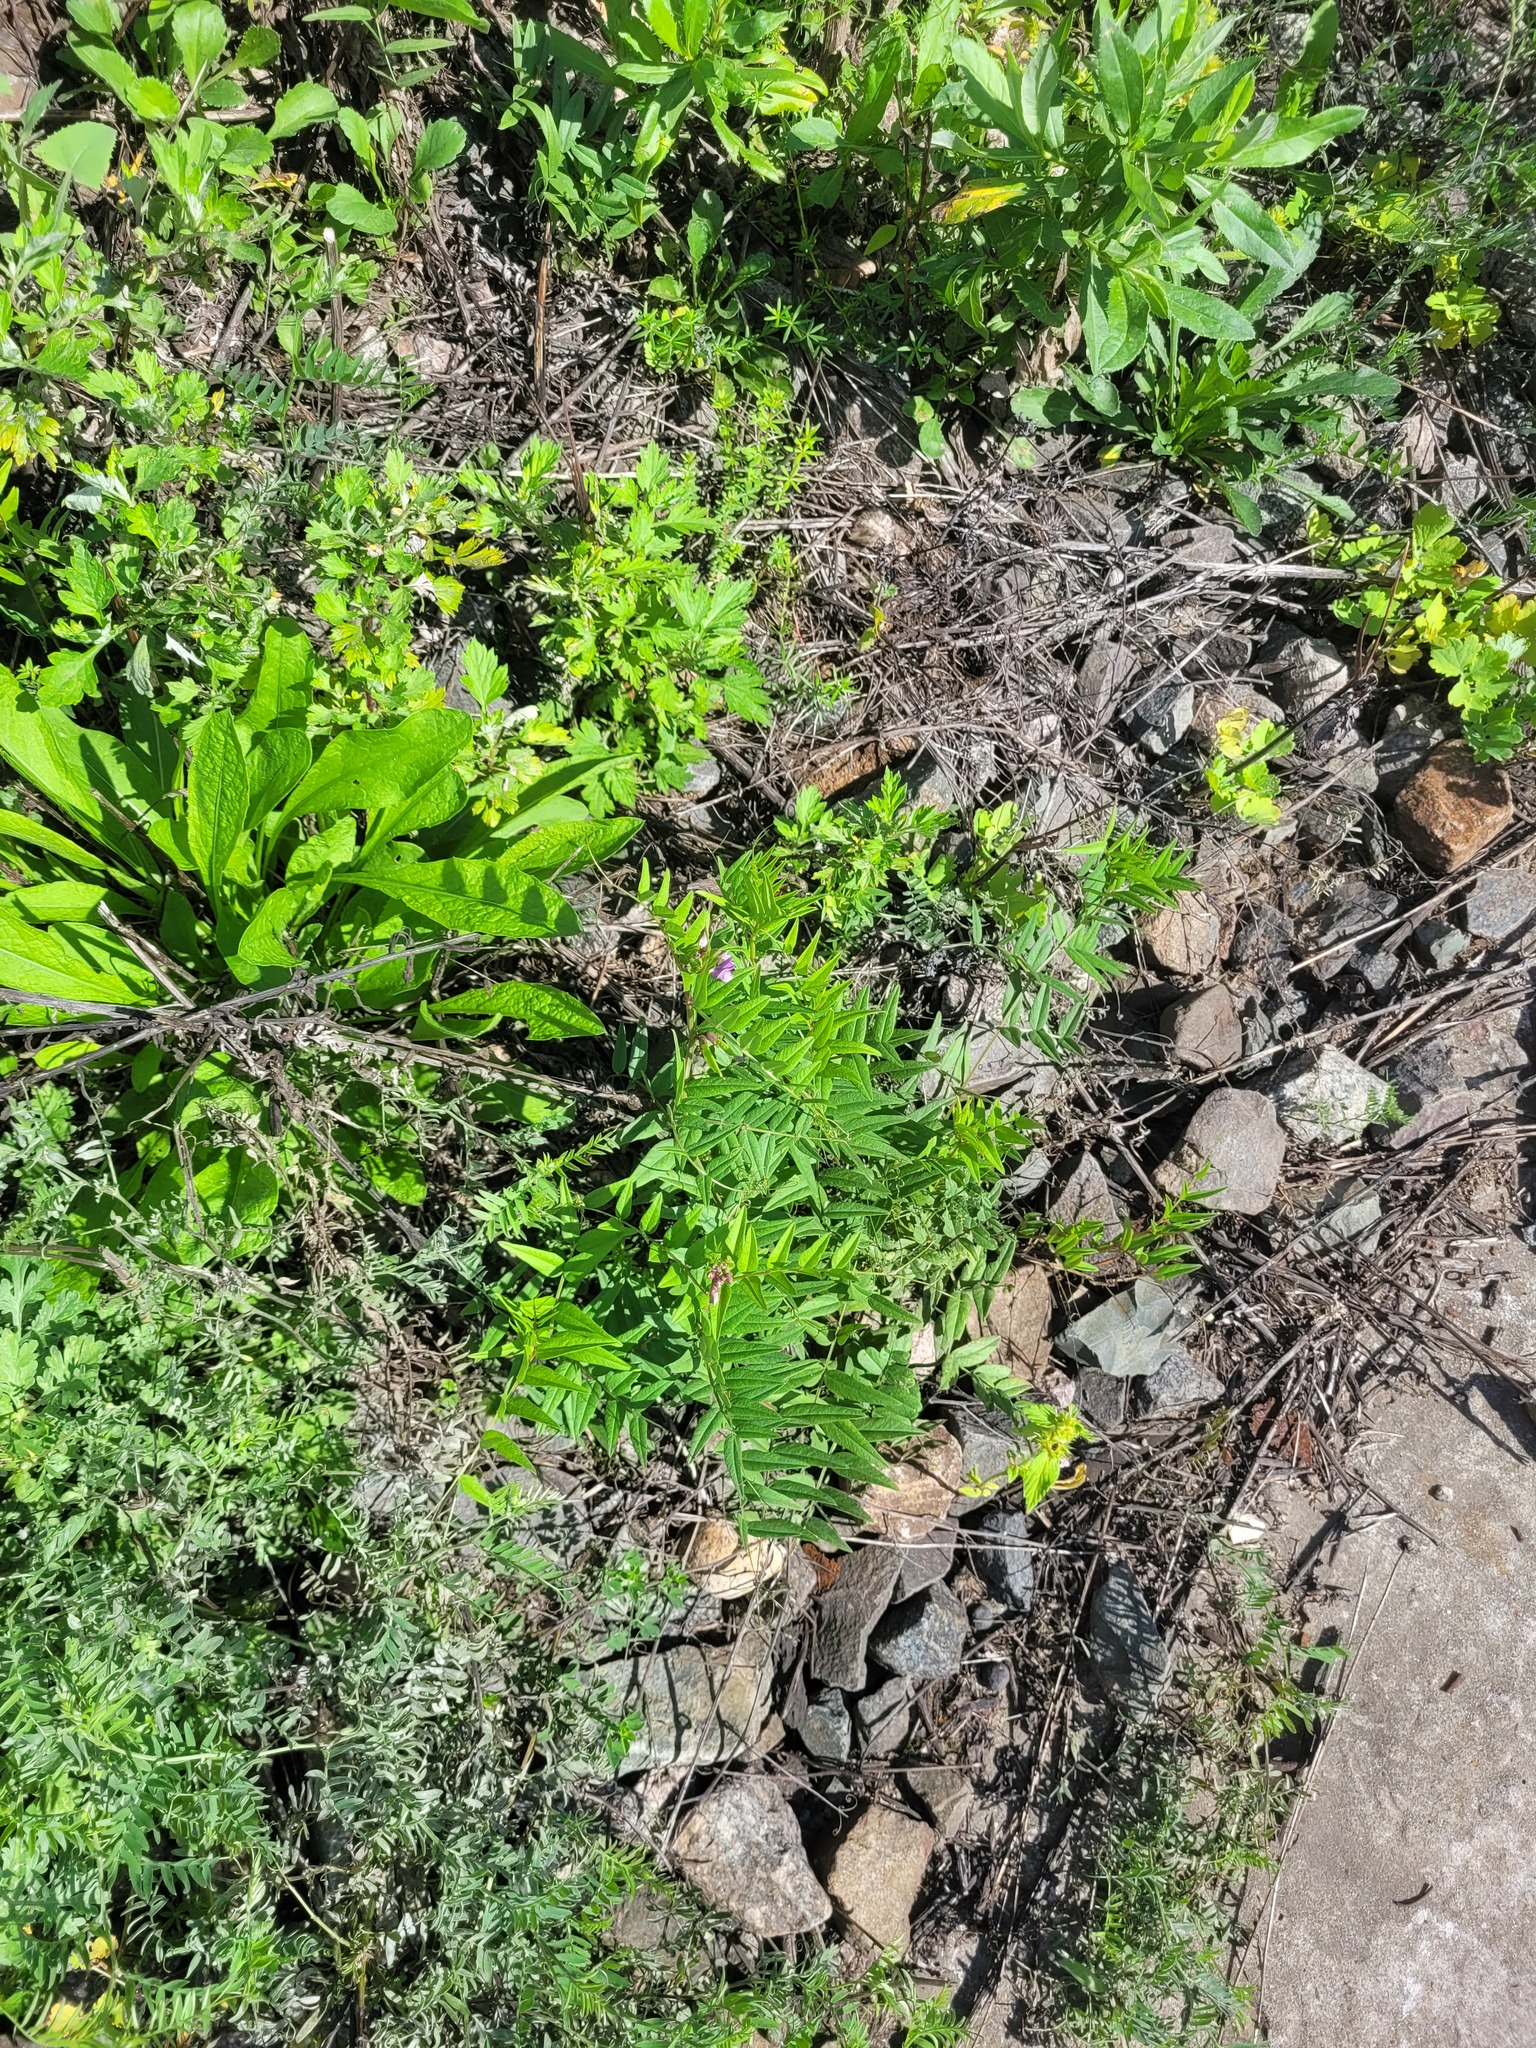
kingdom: Plantae
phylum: Tracheophyta
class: Magnoliopsida
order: Fabales
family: Fabaceae
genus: Vicia
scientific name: Vicia sepium
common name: Bush vetch
